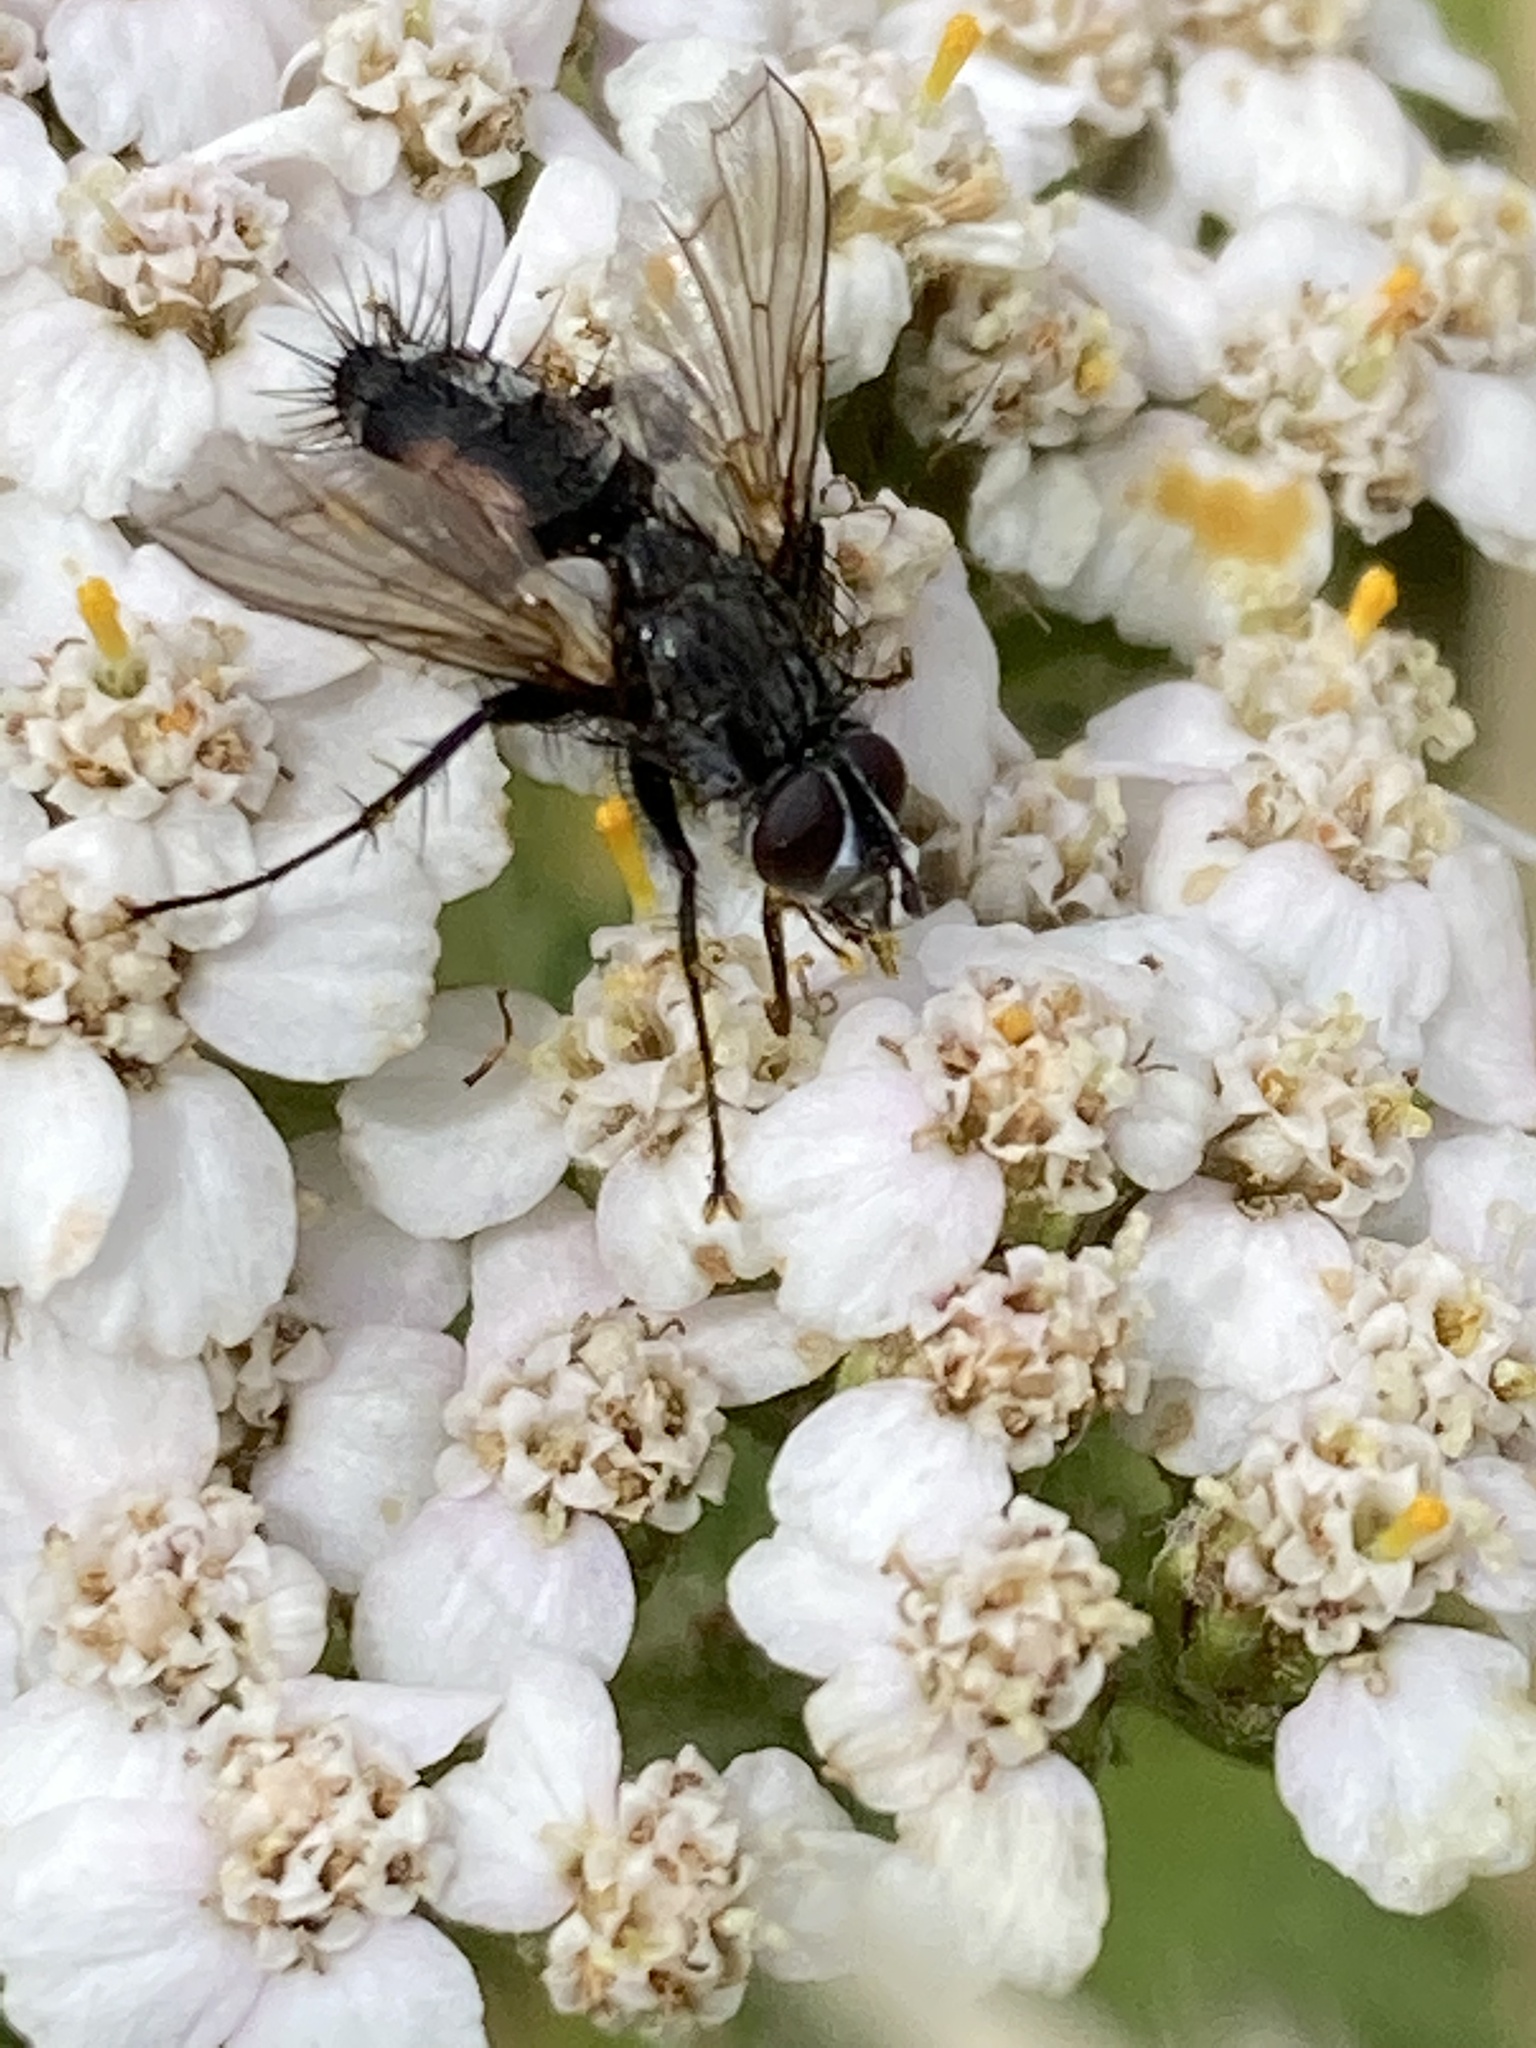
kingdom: Animalia
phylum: Arthropoda
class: Insecta
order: Diptera
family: Tachinidae
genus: Eriothrix
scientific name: Eriothrix rufomaculatus
